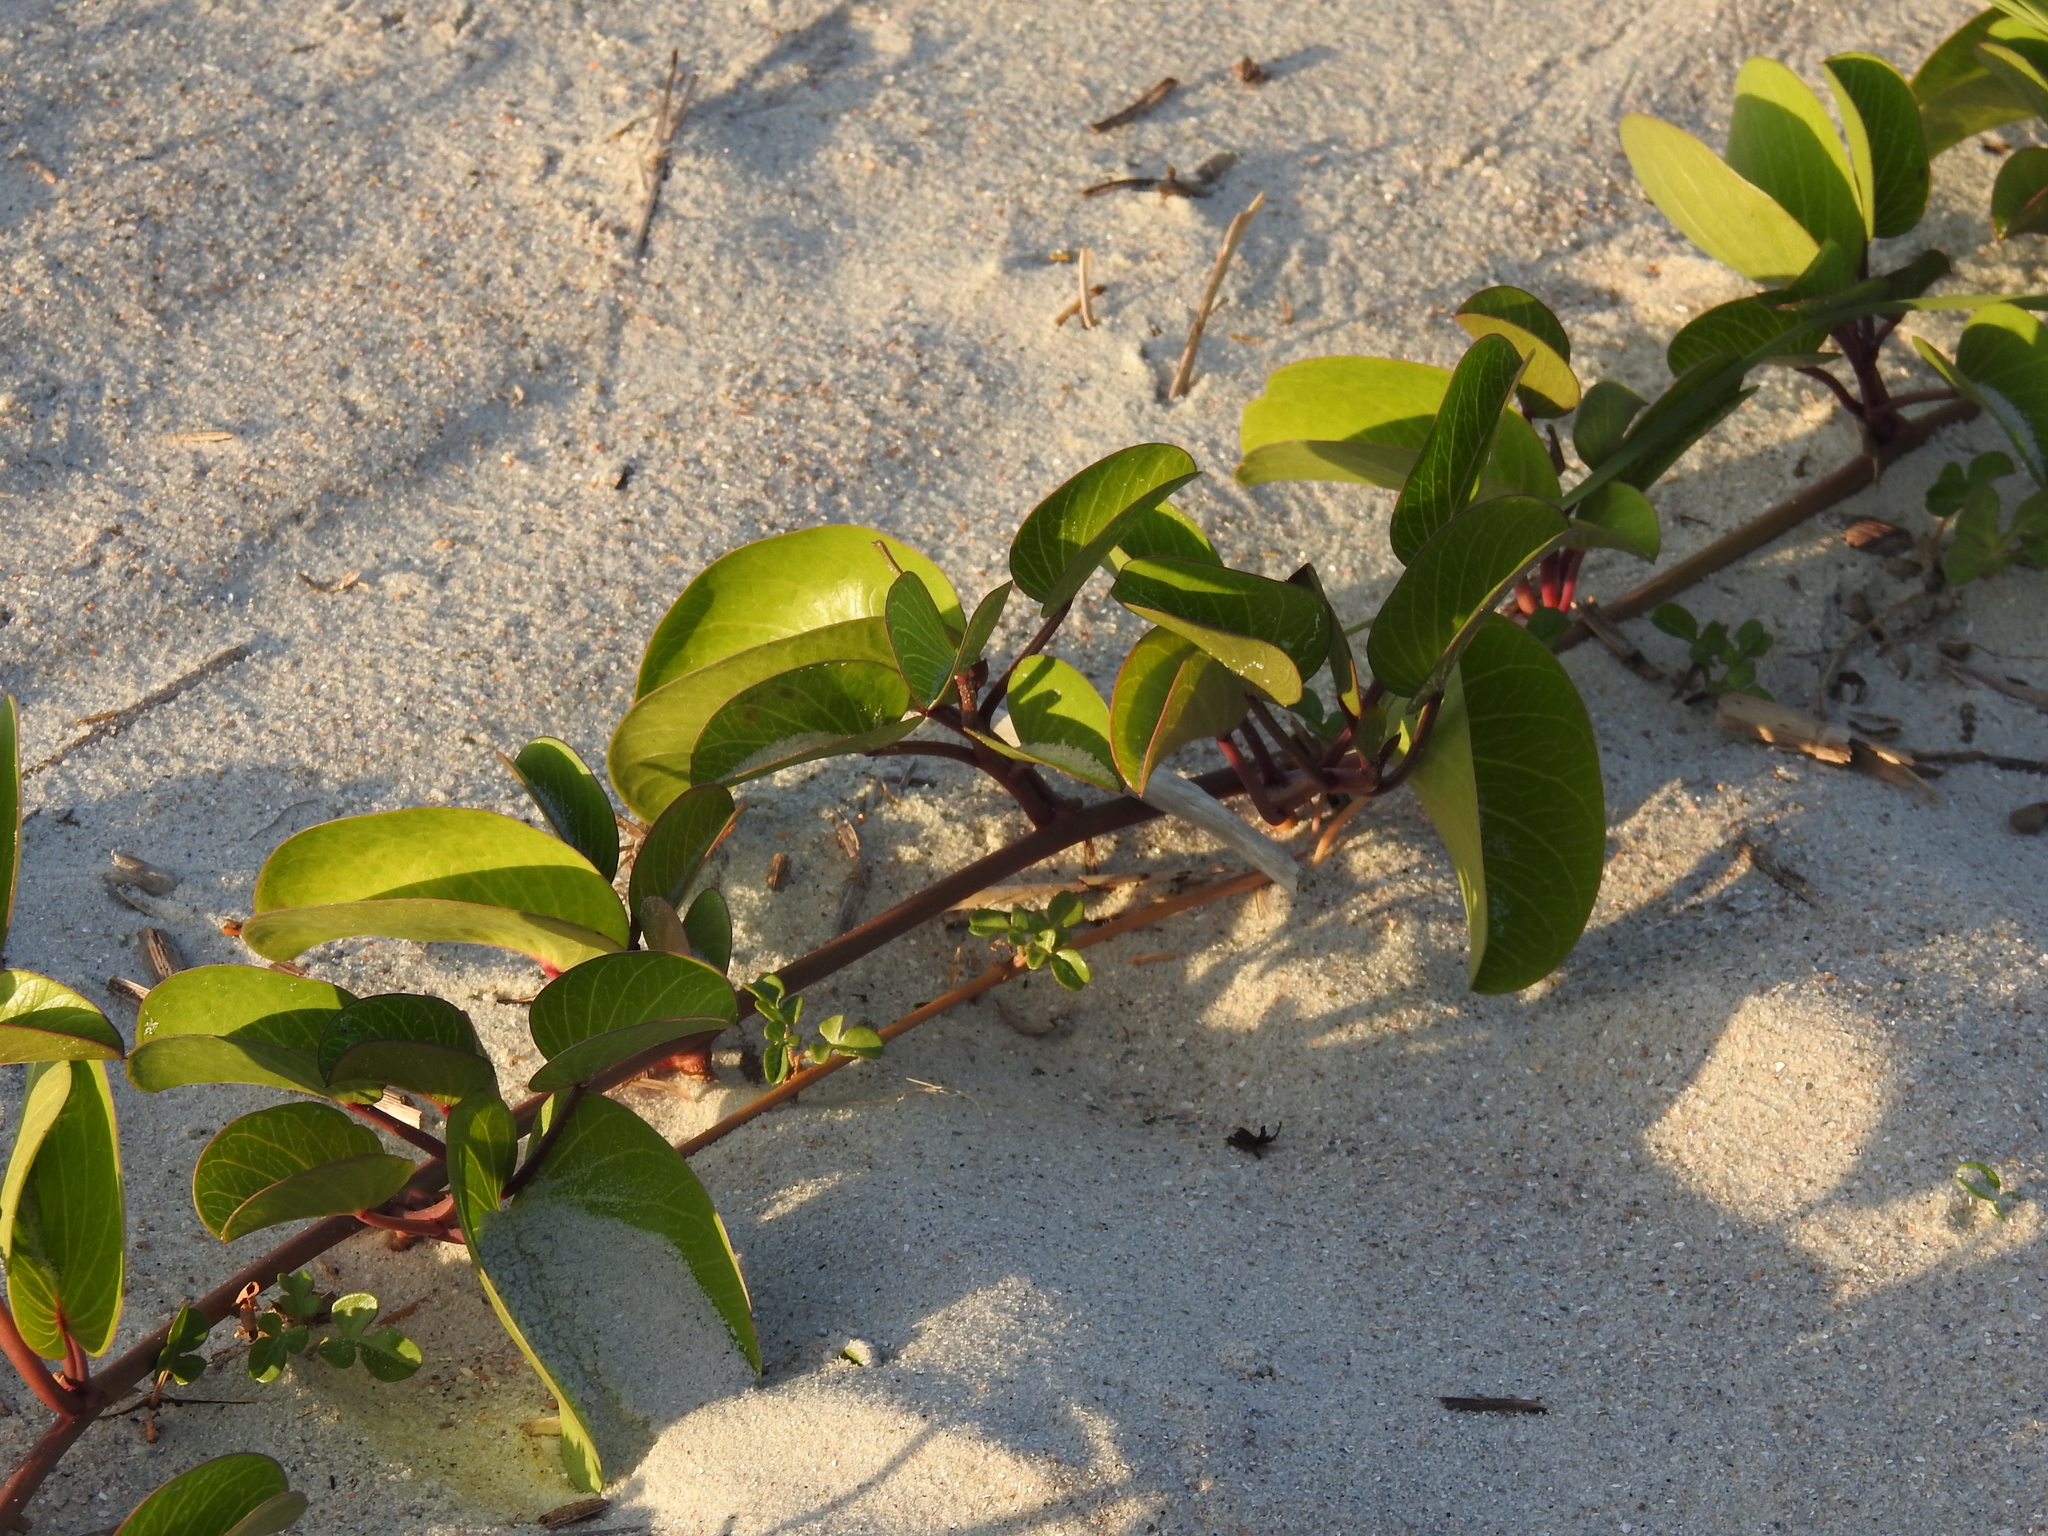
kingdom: Plantae
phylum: Tracheophyta
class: Magnoliopsida
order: Solanales
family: Convolvulaceae
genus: Ipomoea
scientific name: Ipomoea pes-caprae
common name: Beach morning glory
